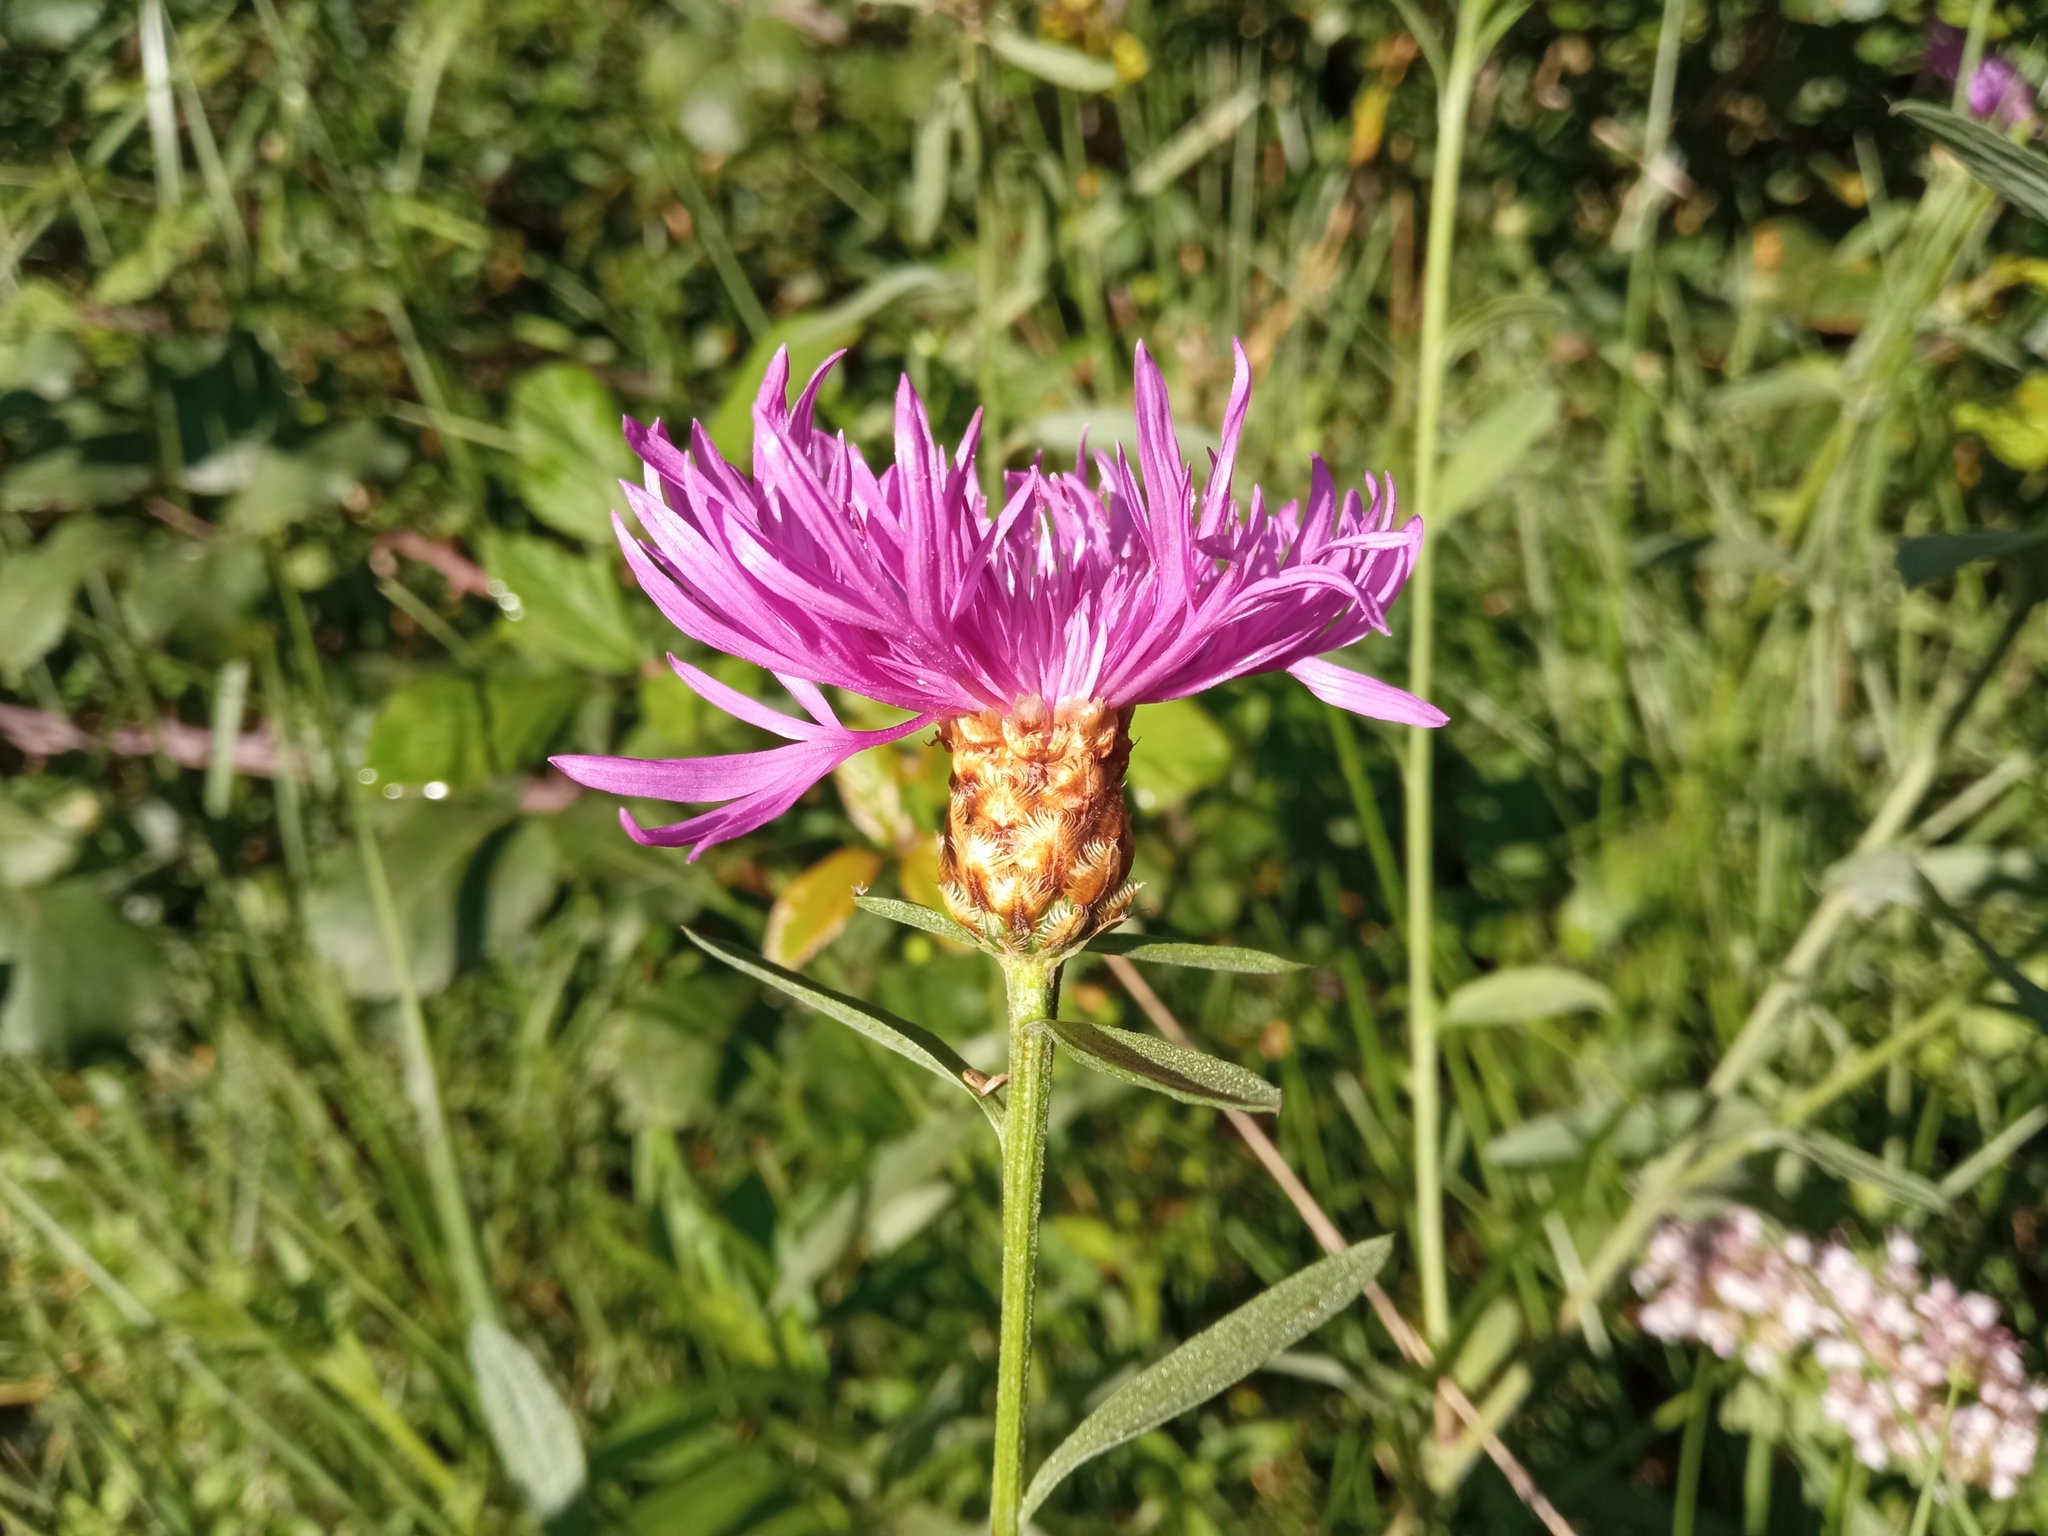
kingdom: Plantae
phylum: Tracheophyta
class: Magnoliopsida
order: Asterales
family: Asteraceae
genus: Centaurea
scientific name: Centaurea jacea
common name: Brown knapweed
